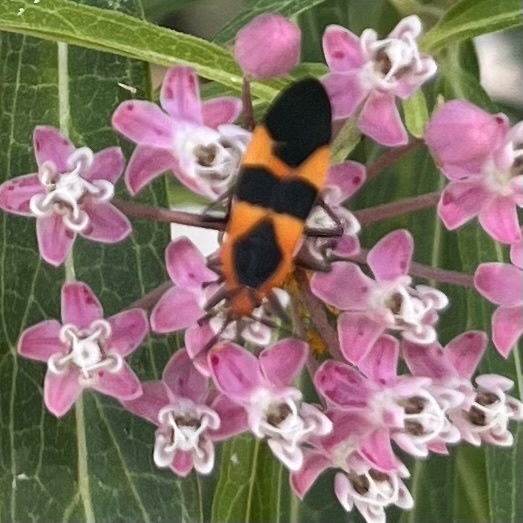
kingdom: Animalia
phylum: Arthropoda
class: Insecta
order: Hemiptera
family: Lygaeidae
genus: Oncopeltus
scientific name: Oncopeltus fasciatus
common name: Large milkweed bug
